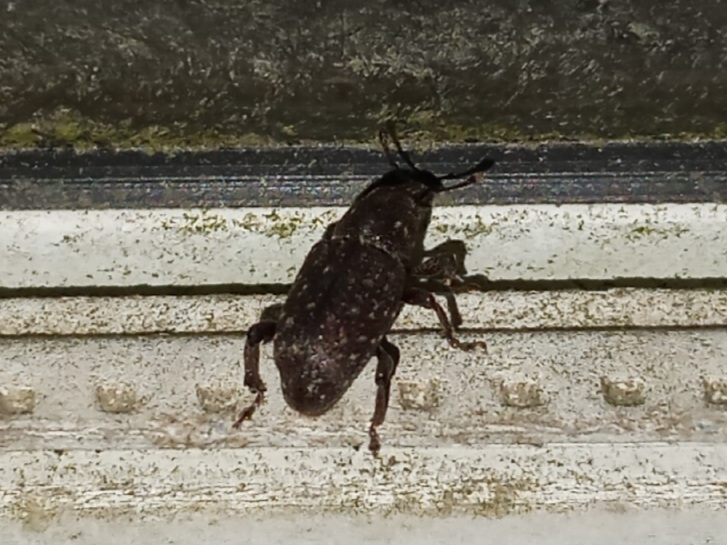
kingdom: Animalia
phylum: Arthropoda
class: Insecta
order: Coleoptera
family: Curculionidae
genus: Pachylobius
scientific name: Pachylobius picivorus
